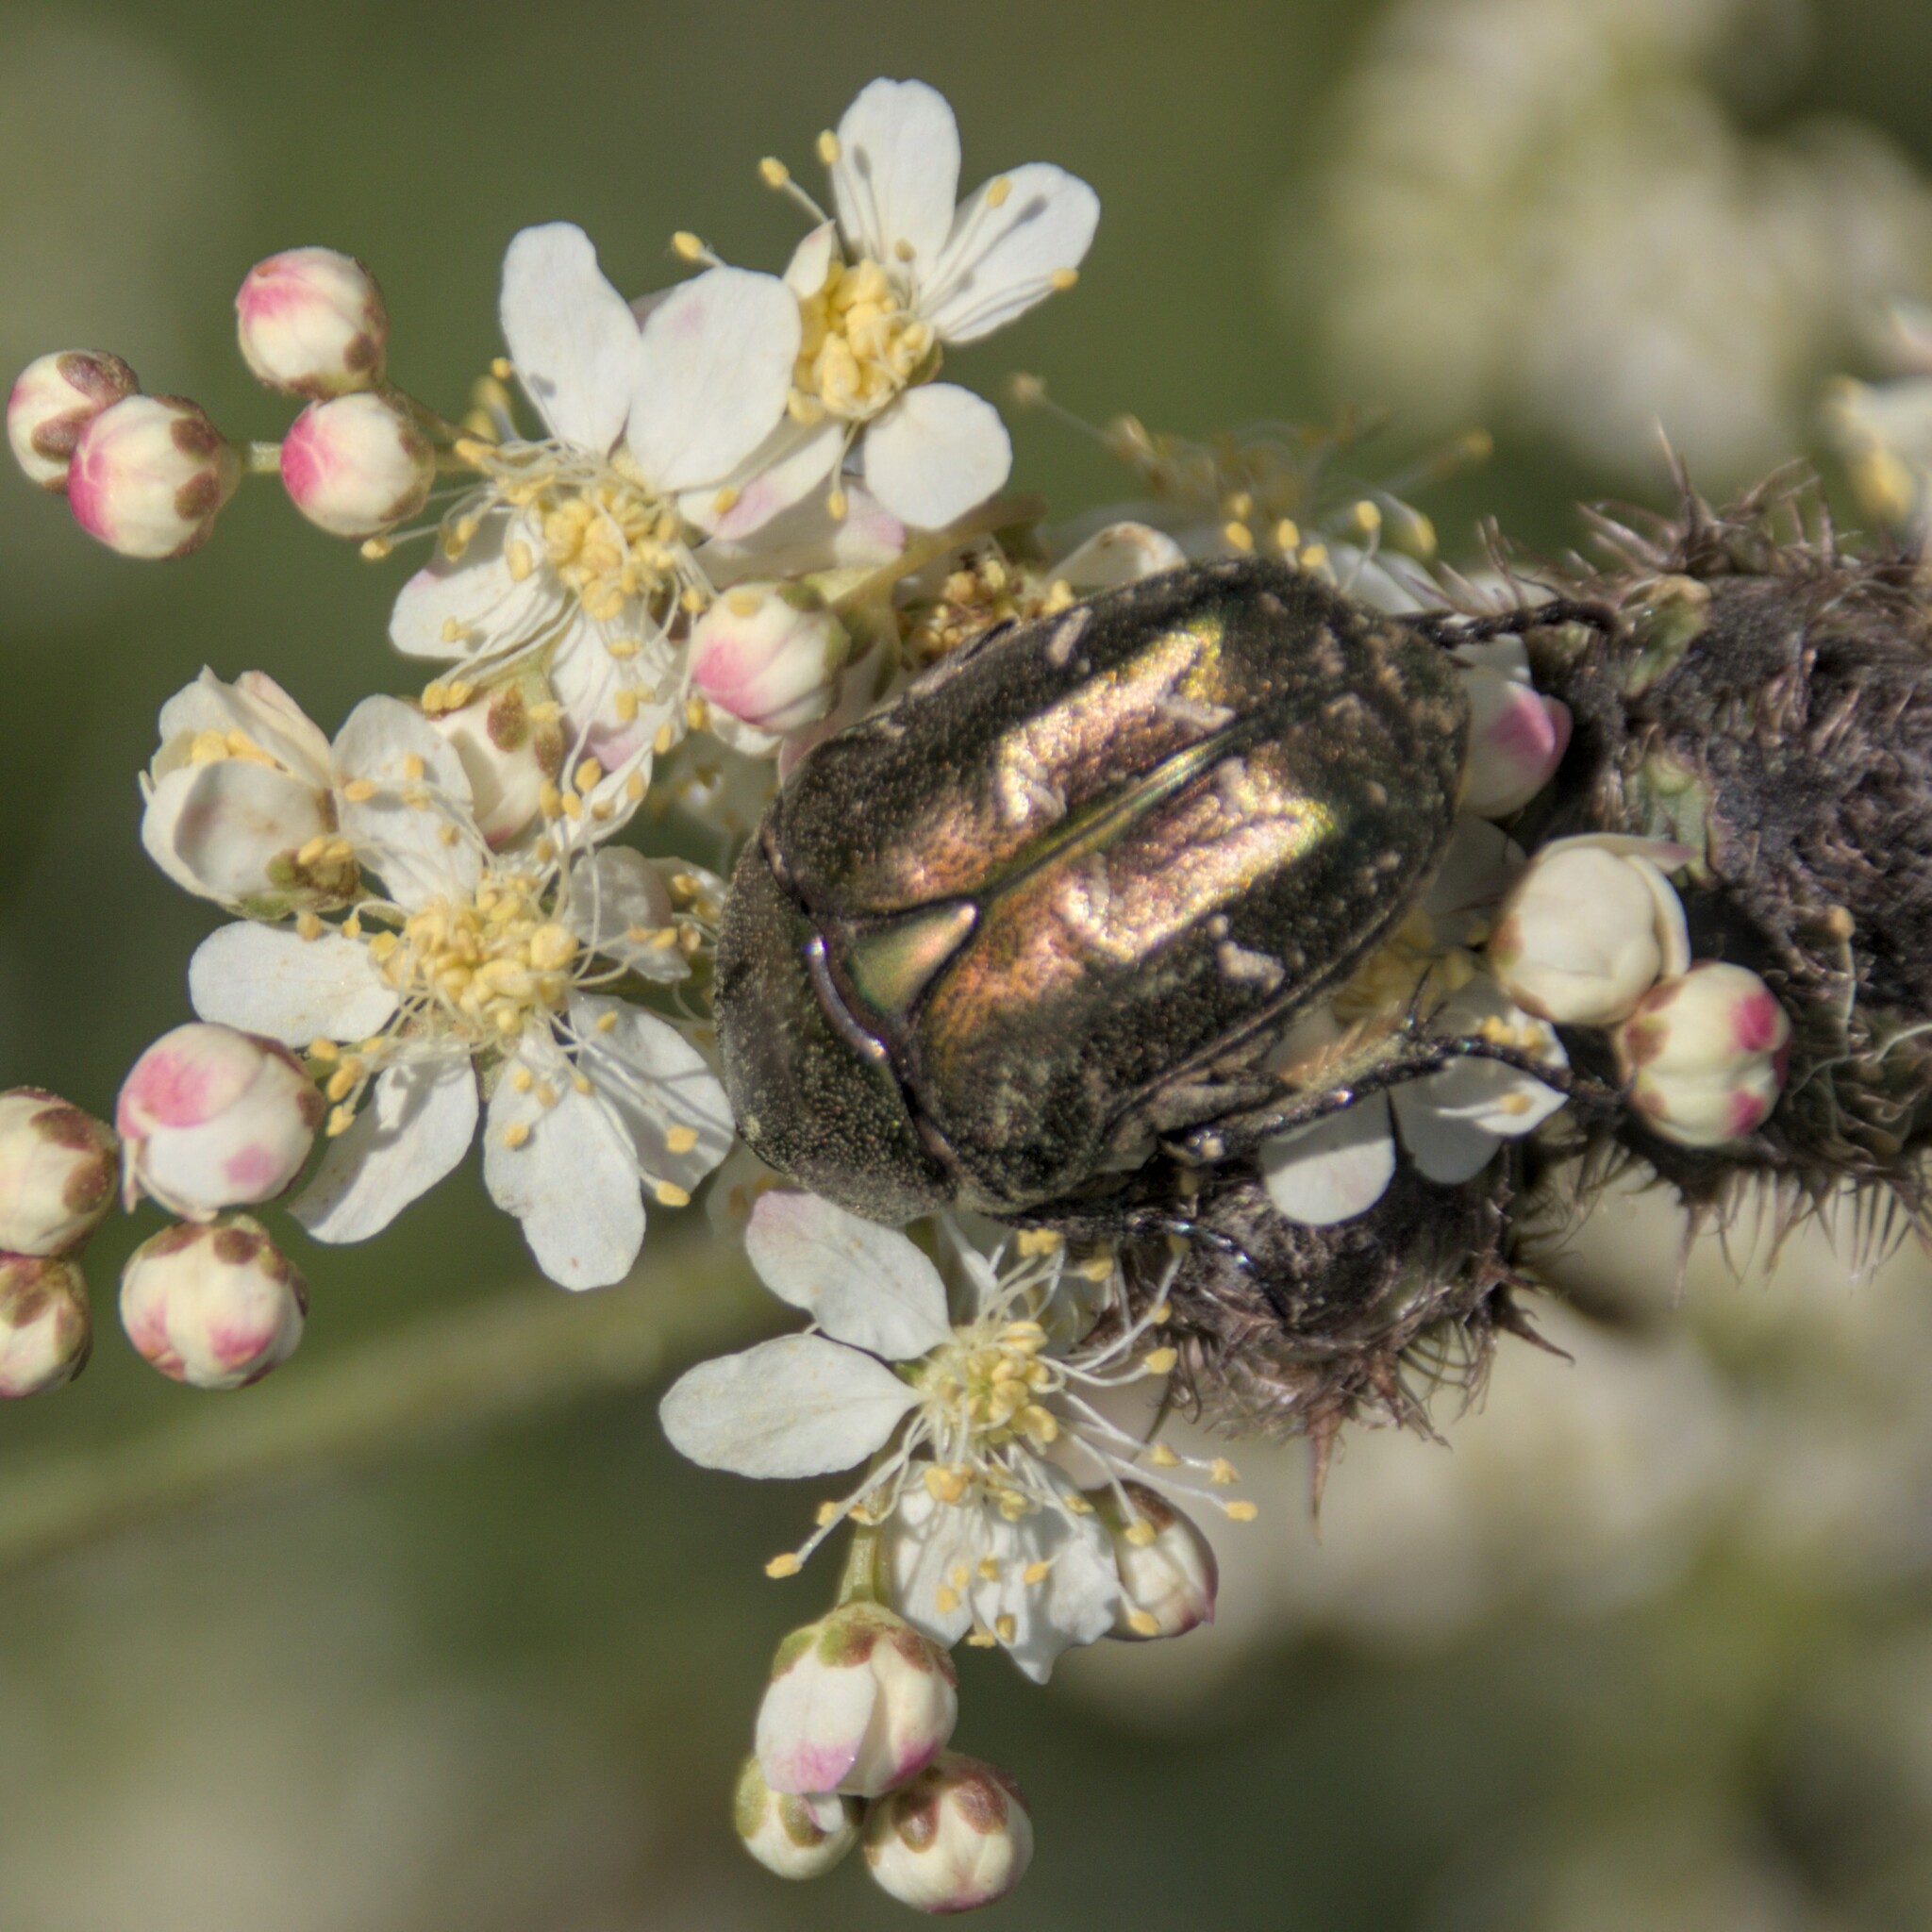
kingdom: Animalia
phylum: Arthropoda
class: Insecta
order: Coleoptera
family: Scarabaeidae
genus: Protaetia
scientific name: Protaetia cuprea
